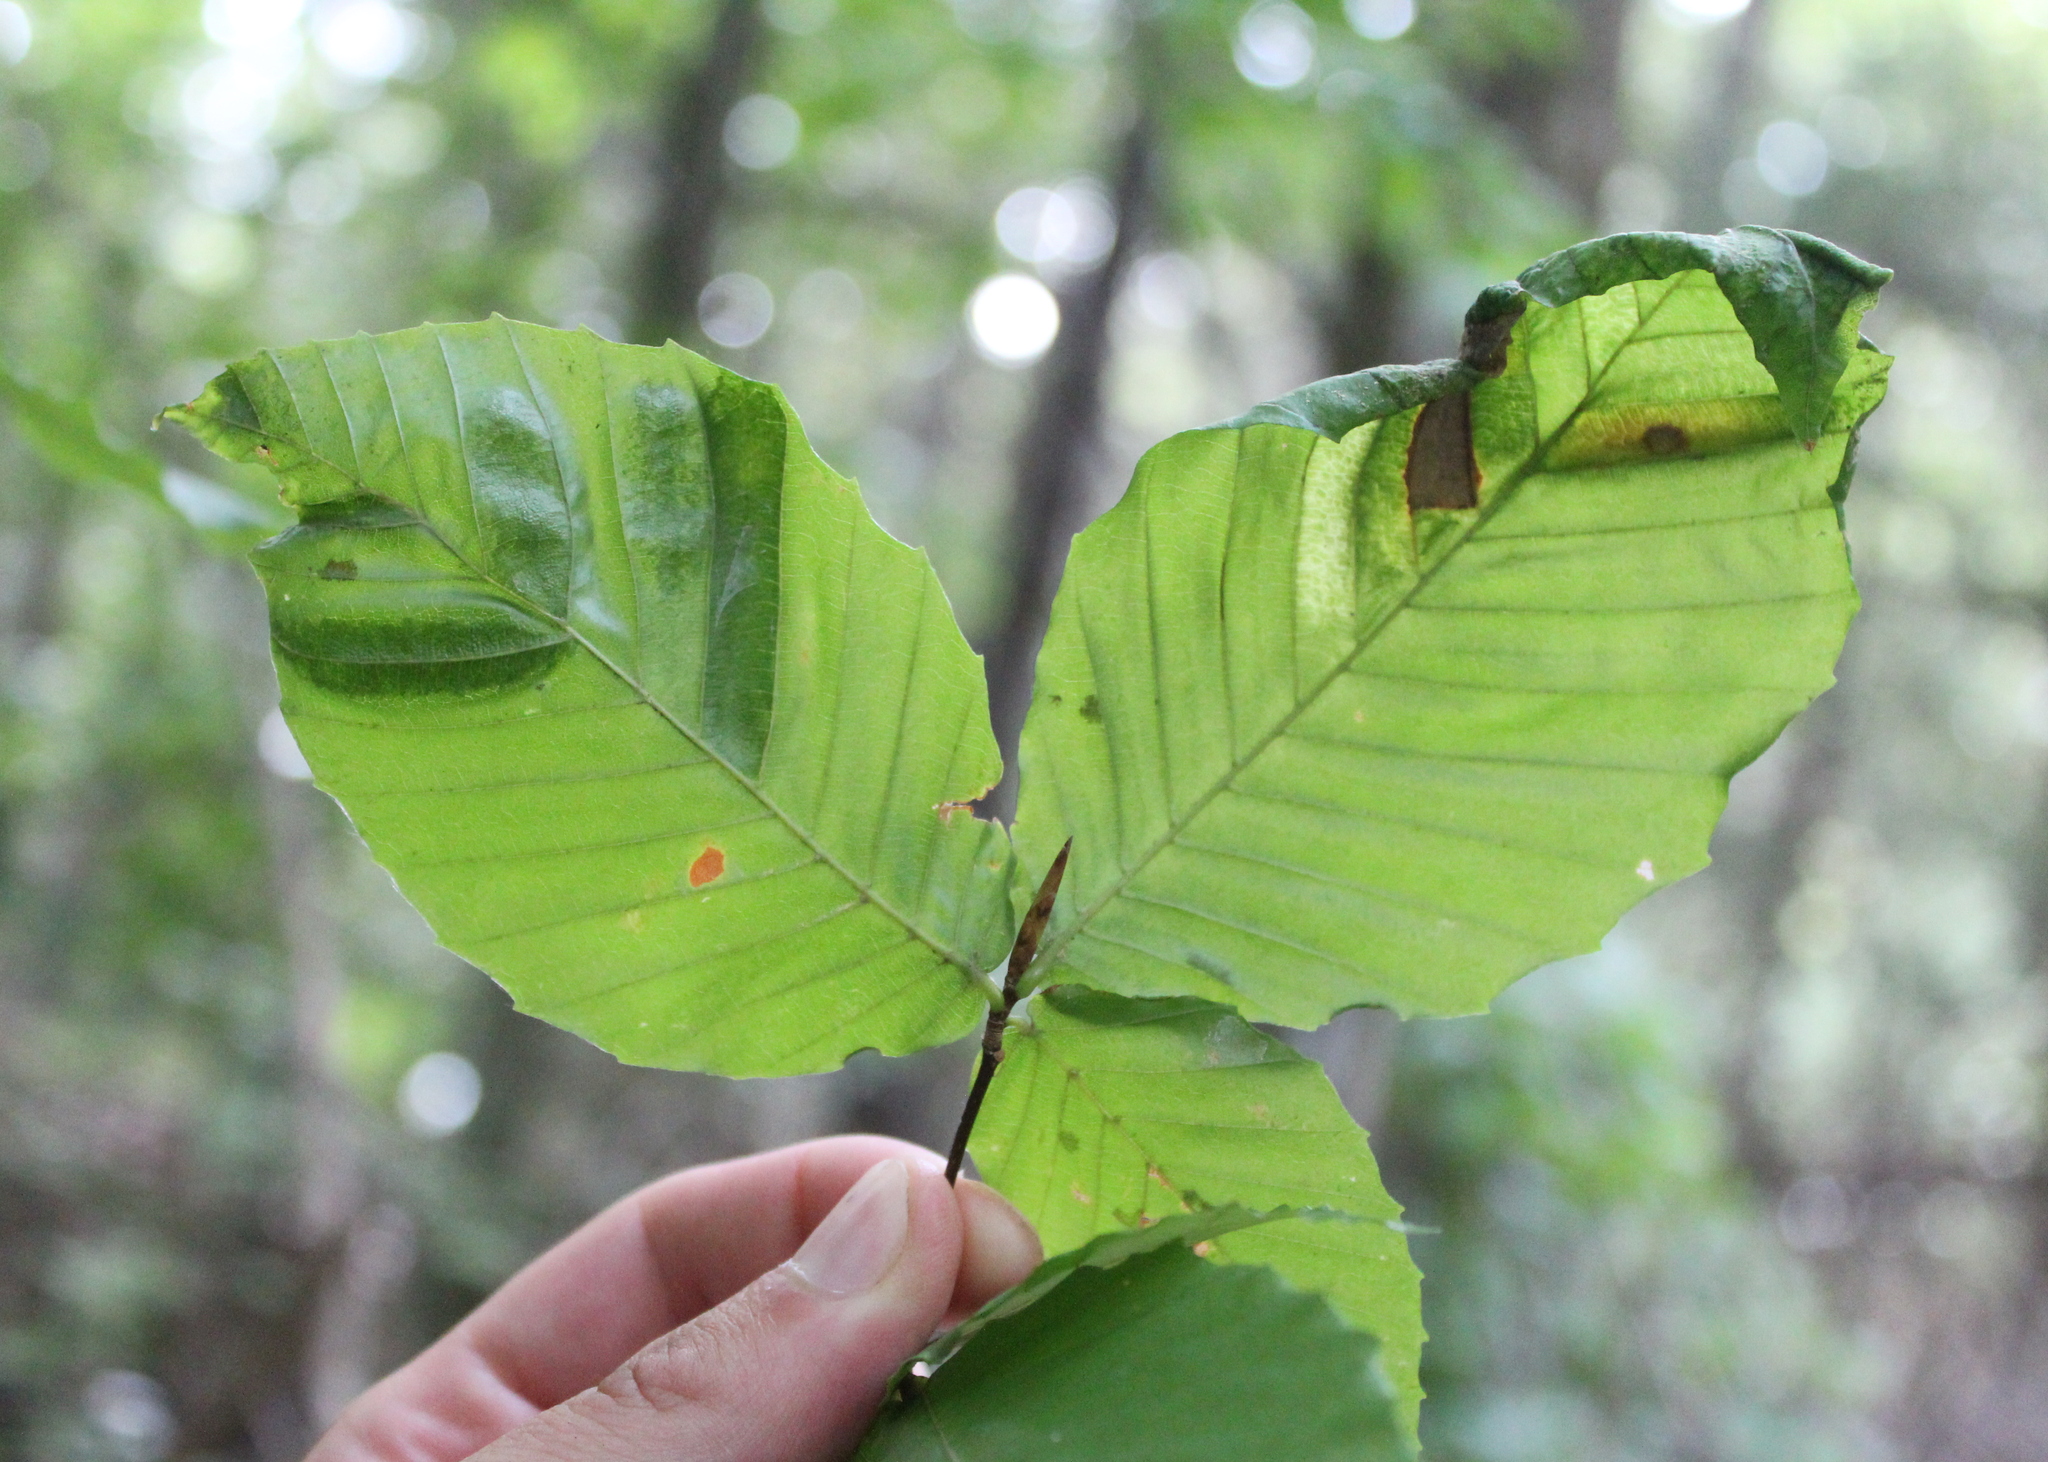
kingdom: Animalia
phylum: Nematoda
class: Chromadorea
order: Rhabditida
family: Anguinidae
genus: Litylenchus
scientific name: Litylenchus crenatae
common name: Beech leaf disease
